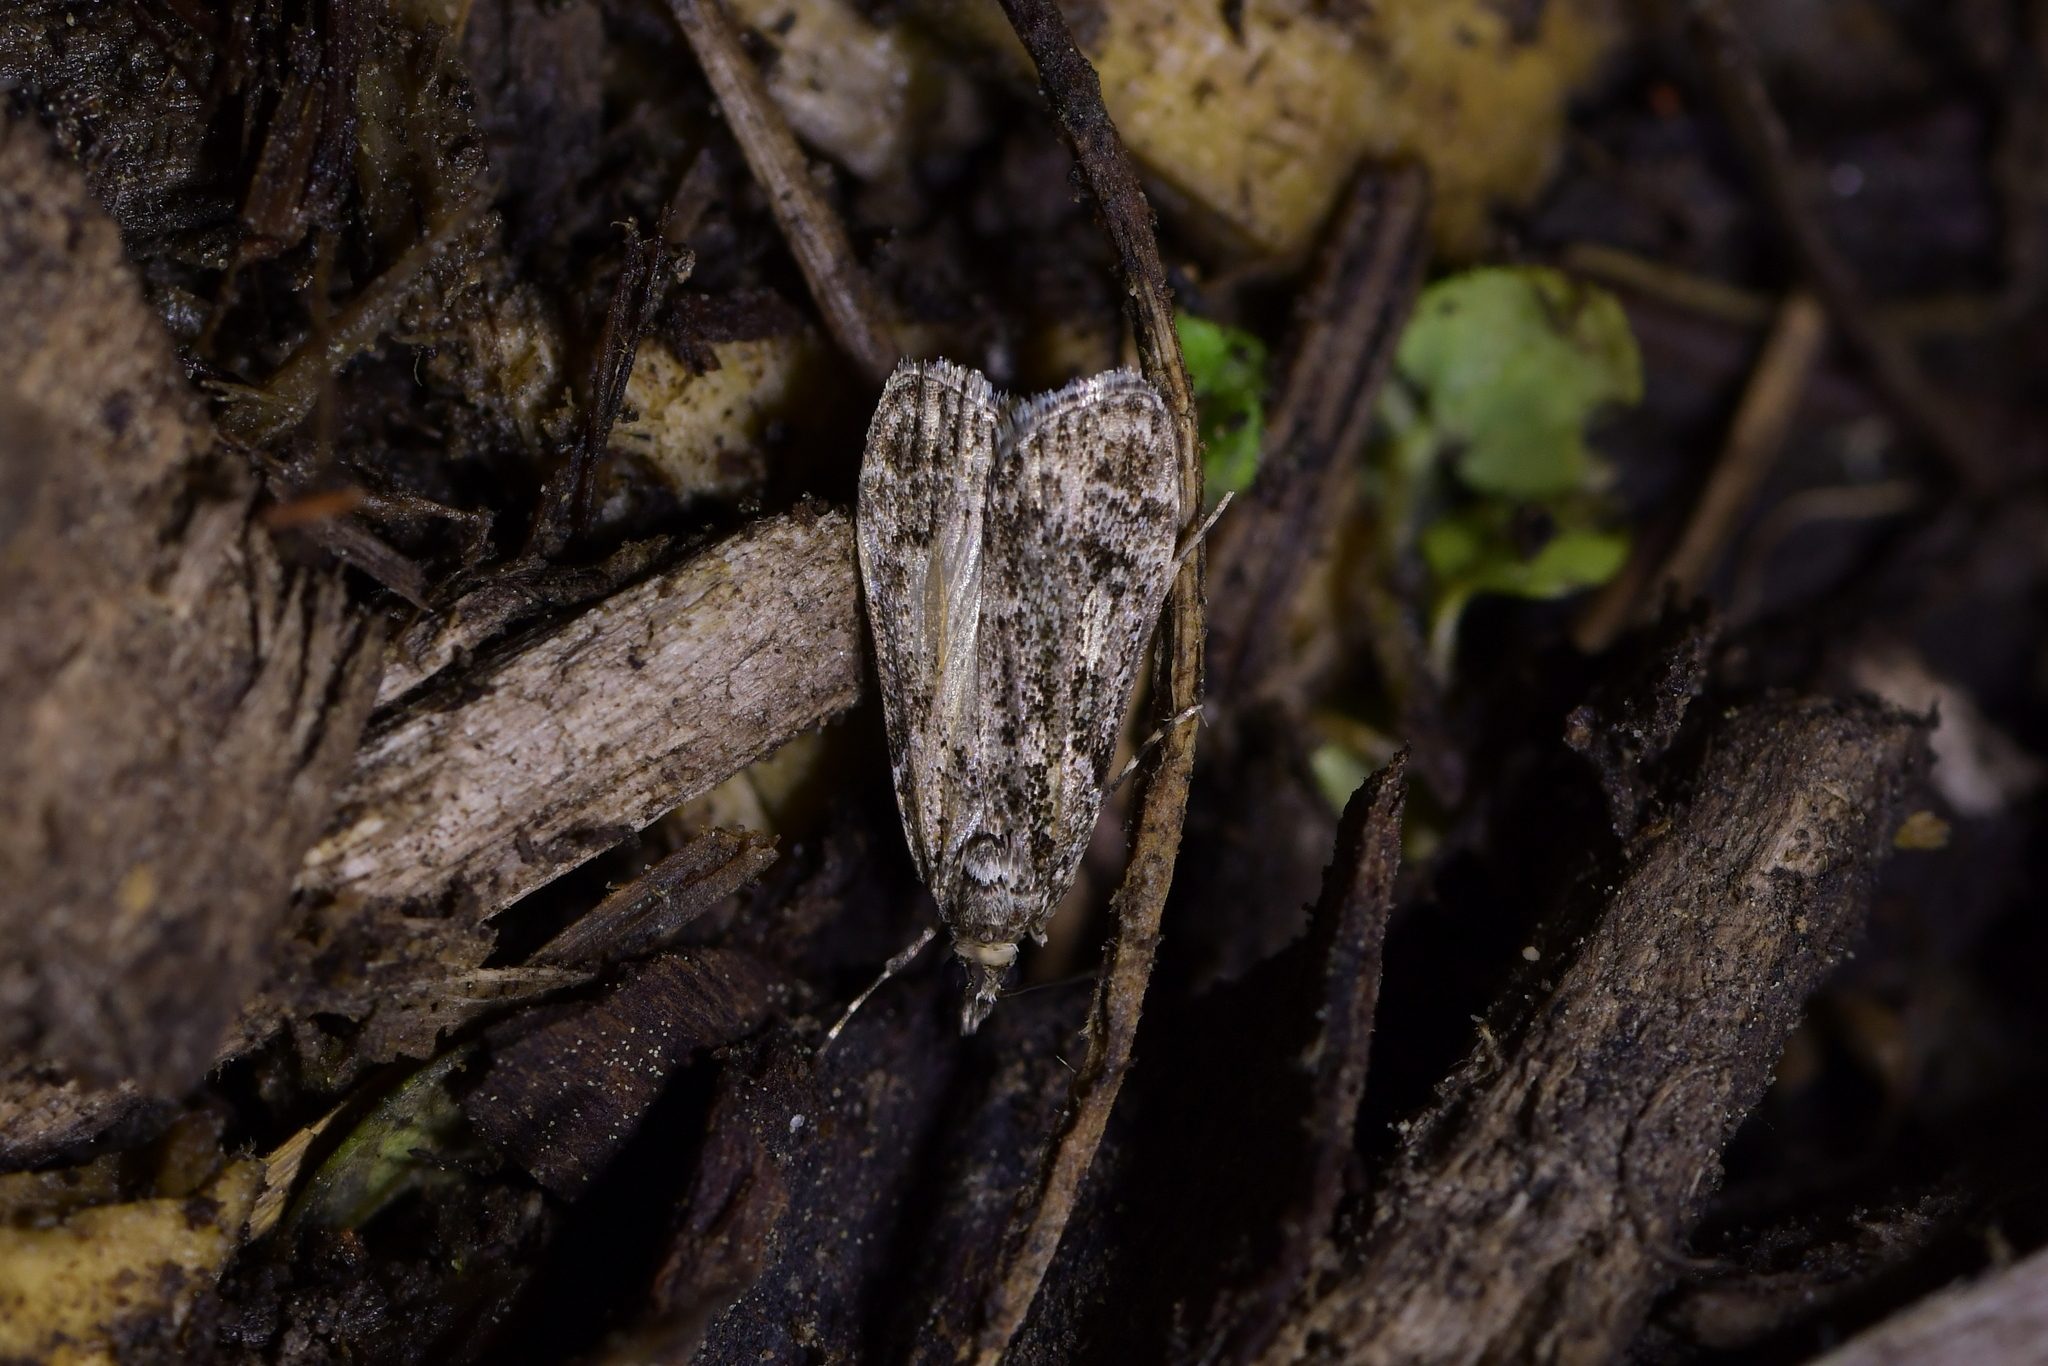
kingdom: Animalia
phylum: Arthropoda
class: Insecta
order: Lepidoptera
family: Crambidae
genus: Eudonia
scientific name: Eudonia philerga
